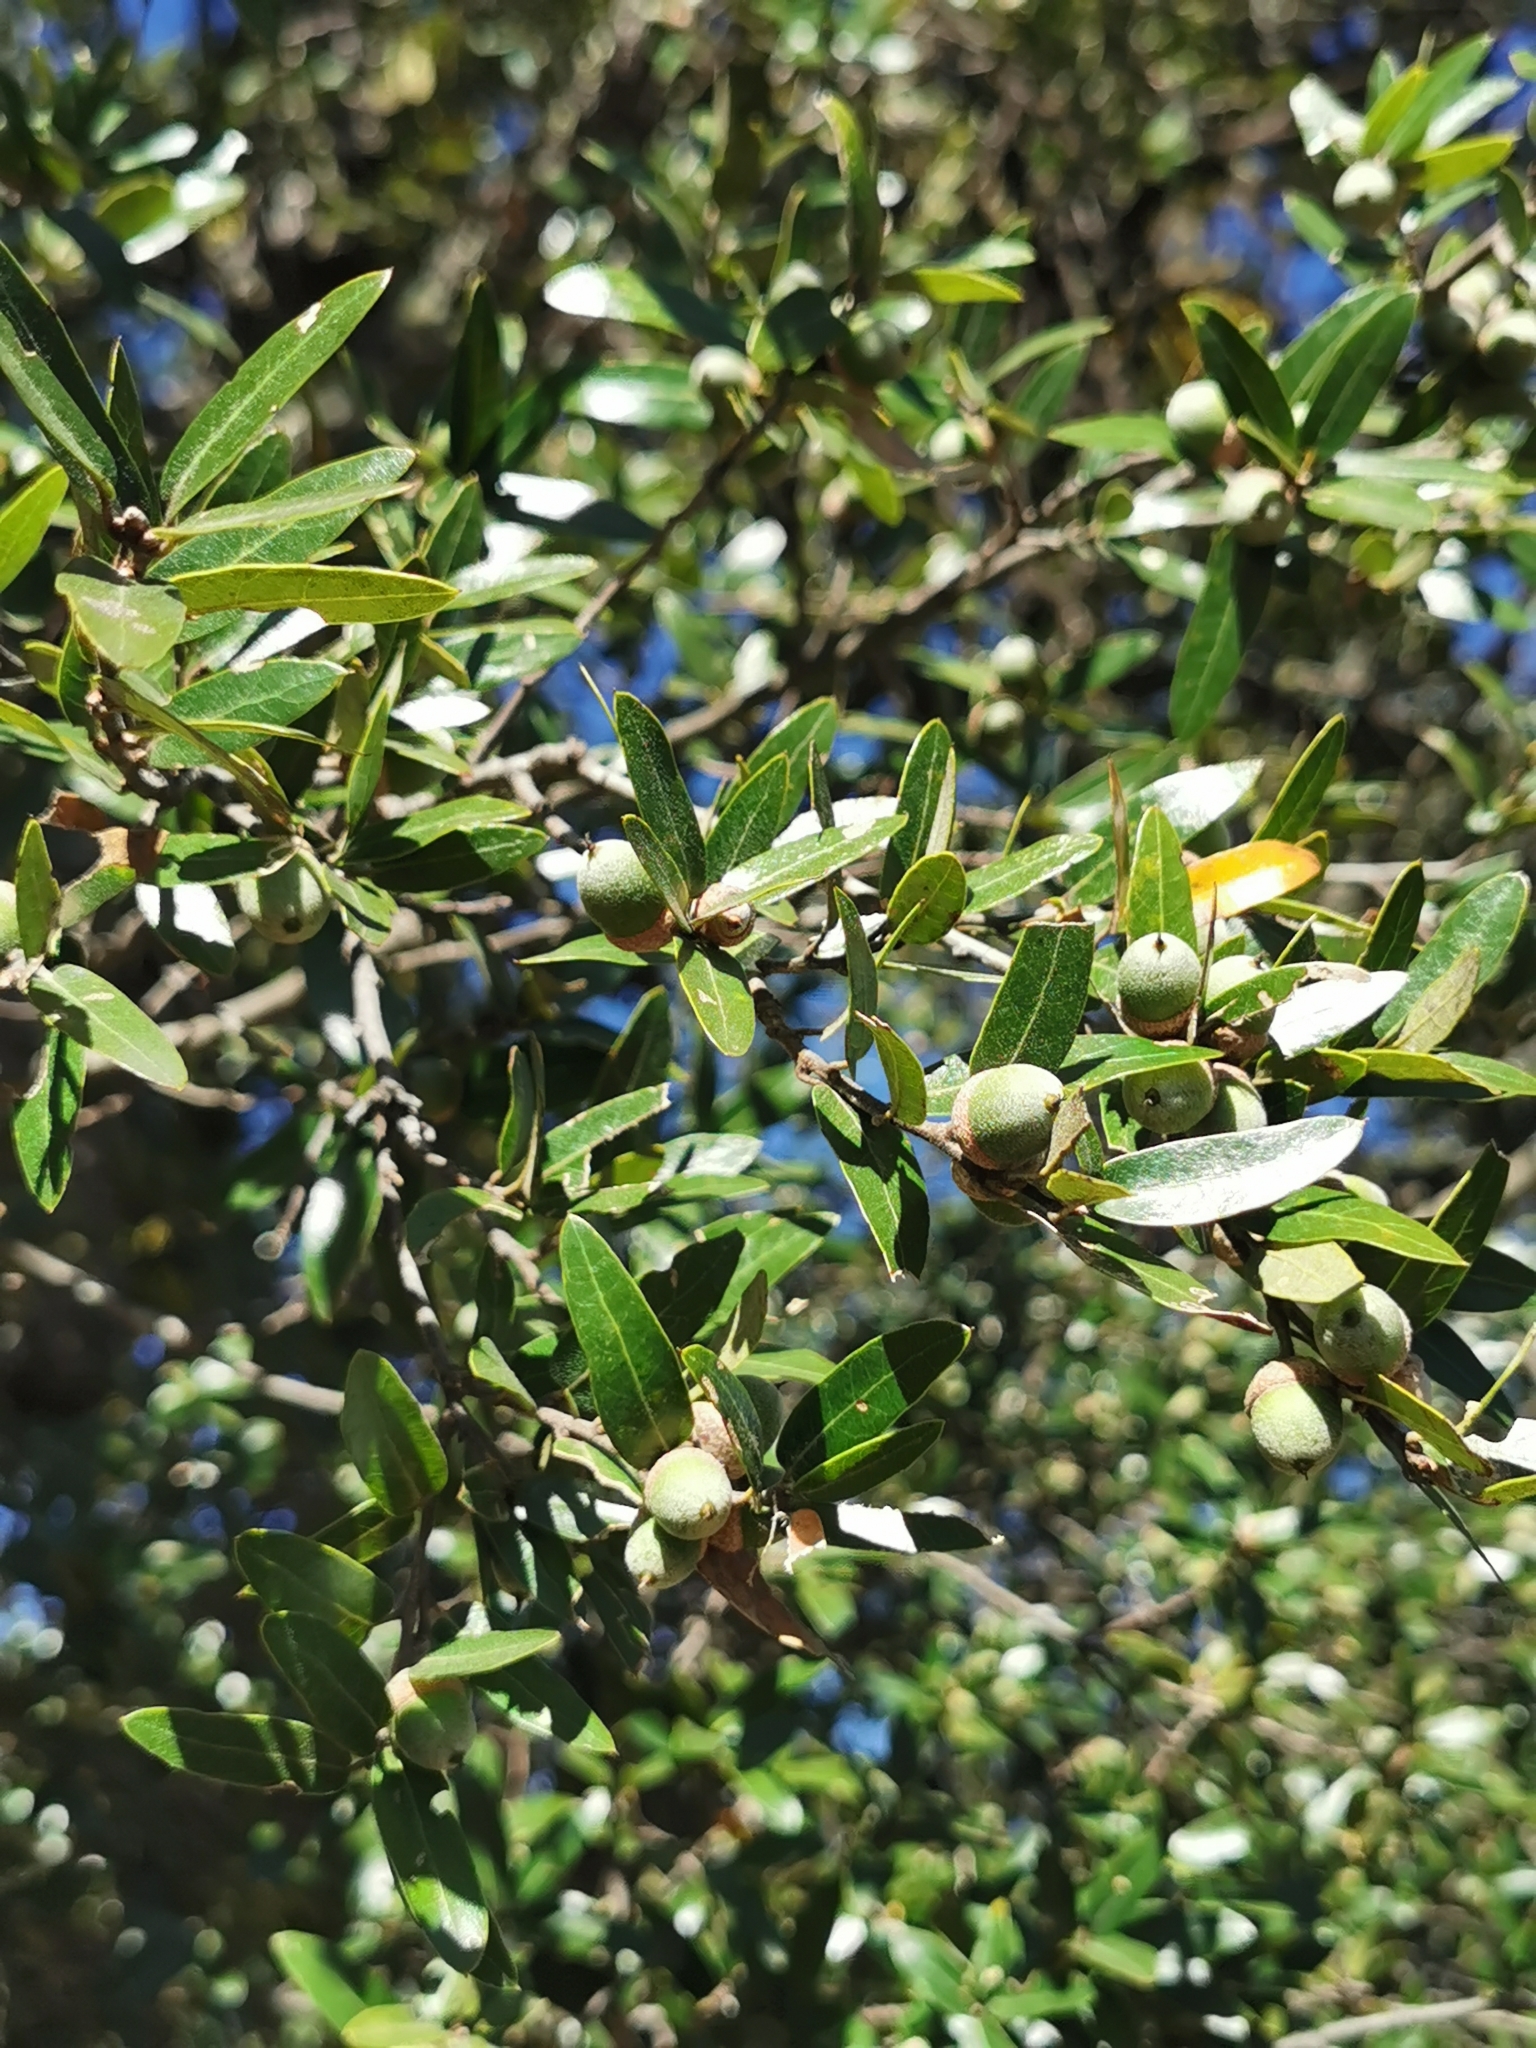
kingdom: Plantae
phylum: Tracheophyta
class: Magnoliopsida
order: Fagales
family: Fagaceae
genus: Quercus
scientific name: Quercus eduardi
